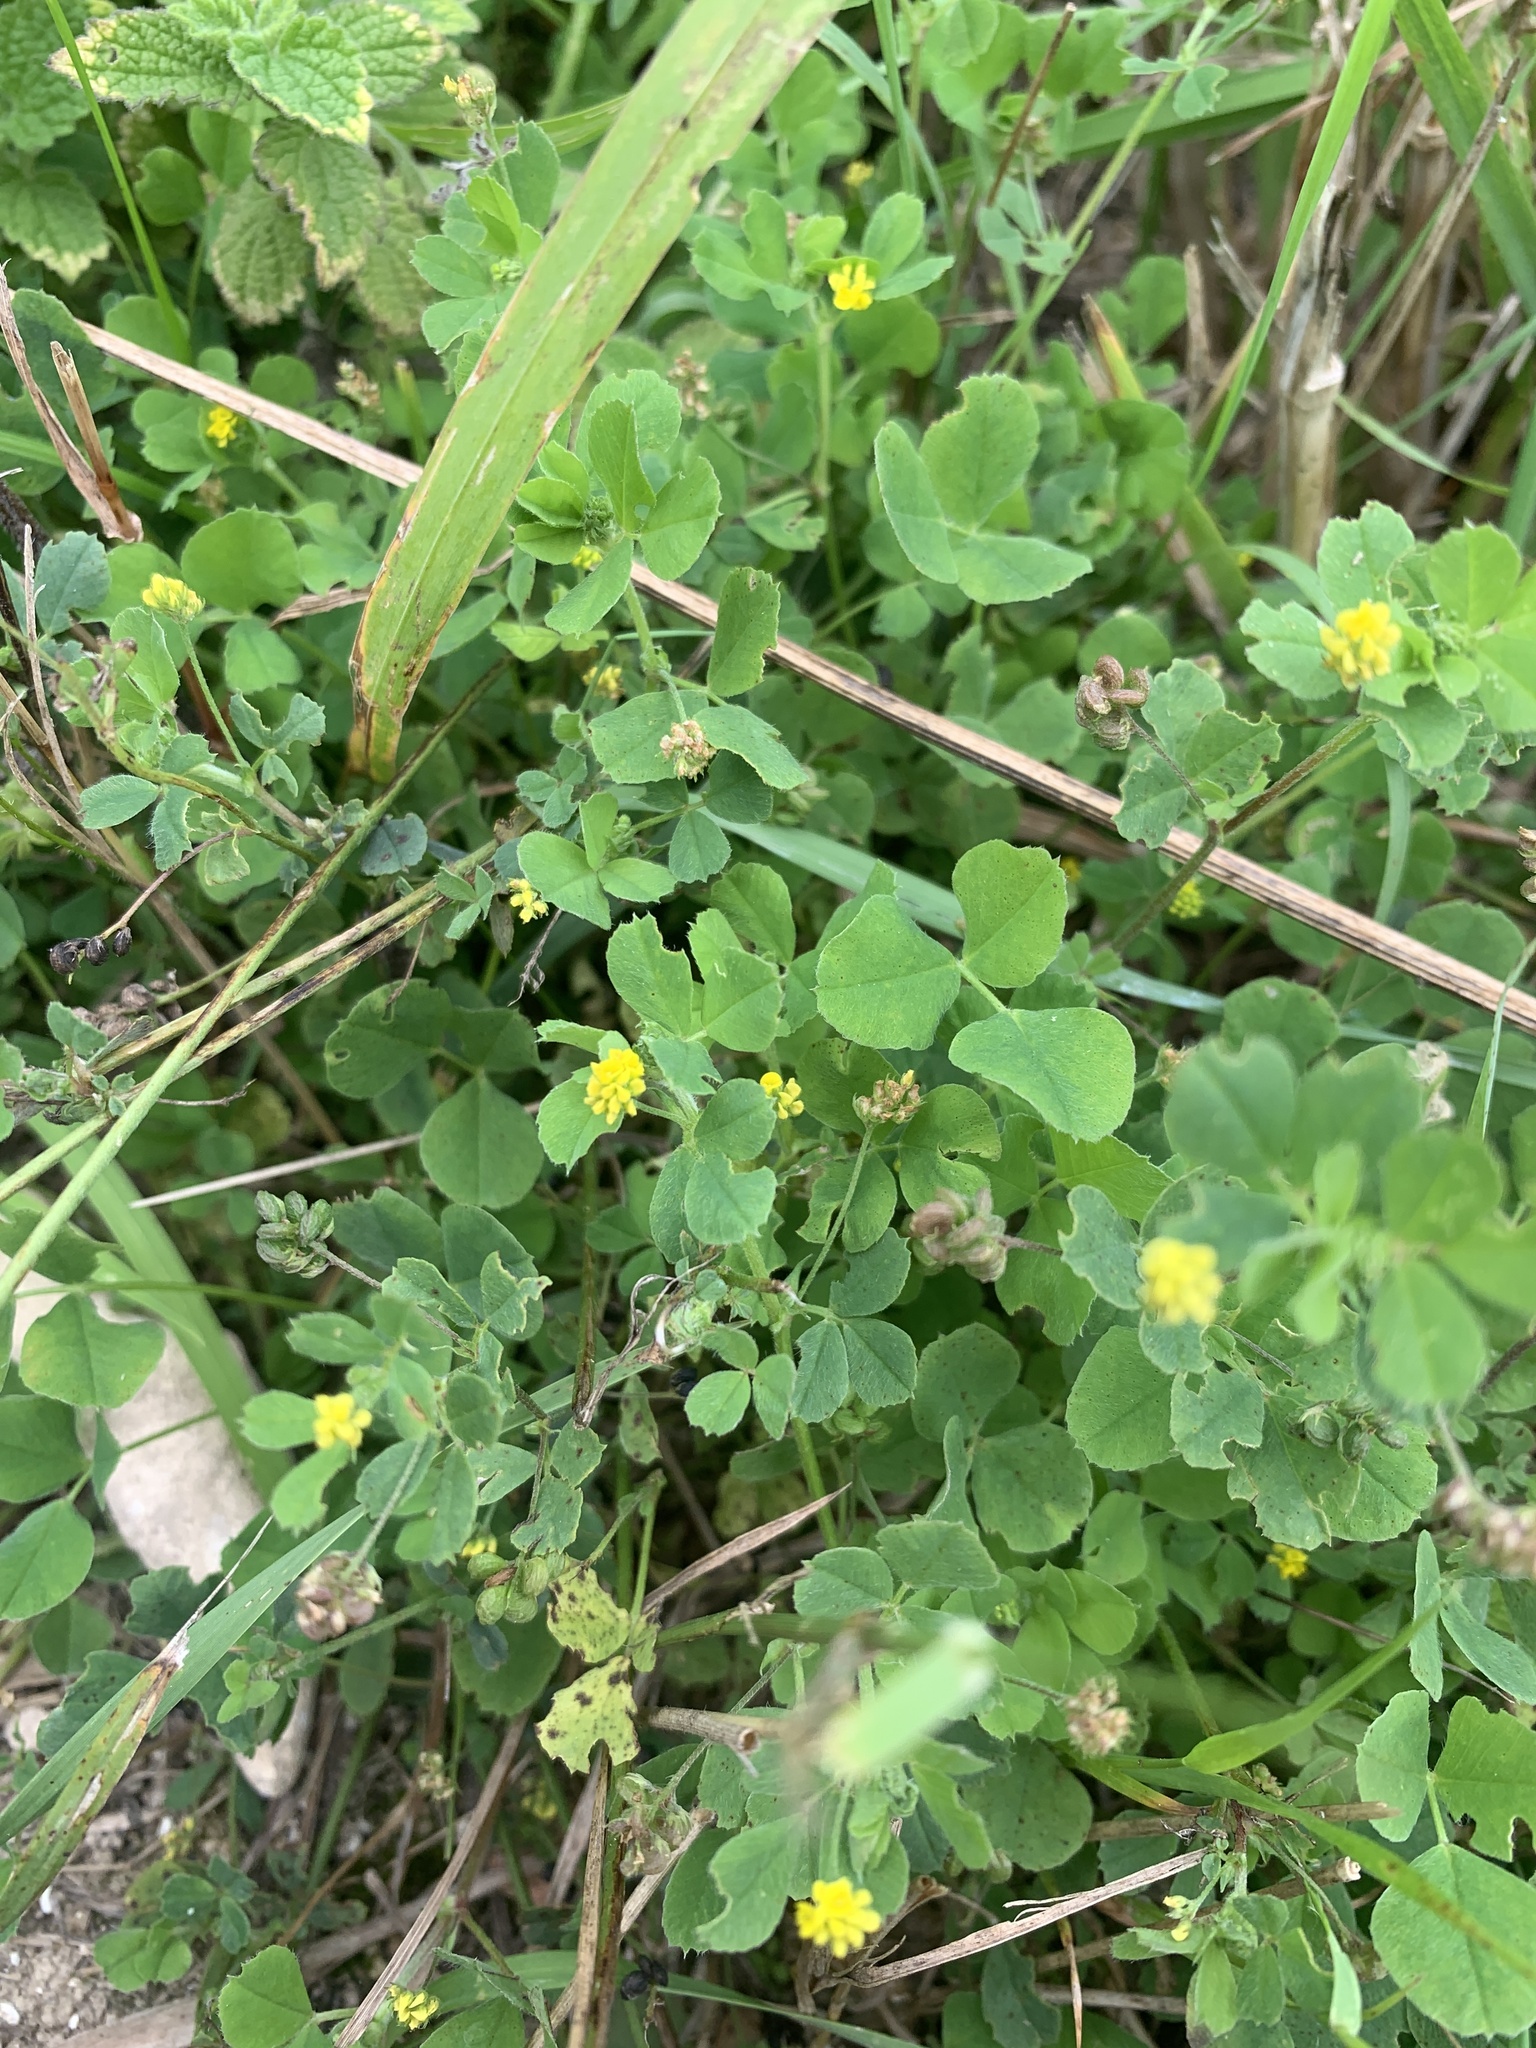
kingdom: Plantae
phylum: Tracheophyta
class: Magnoliopsida
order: Fabales
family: Fabaceae
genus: Medicago
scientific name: Medicago lupulina
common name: Black medick
